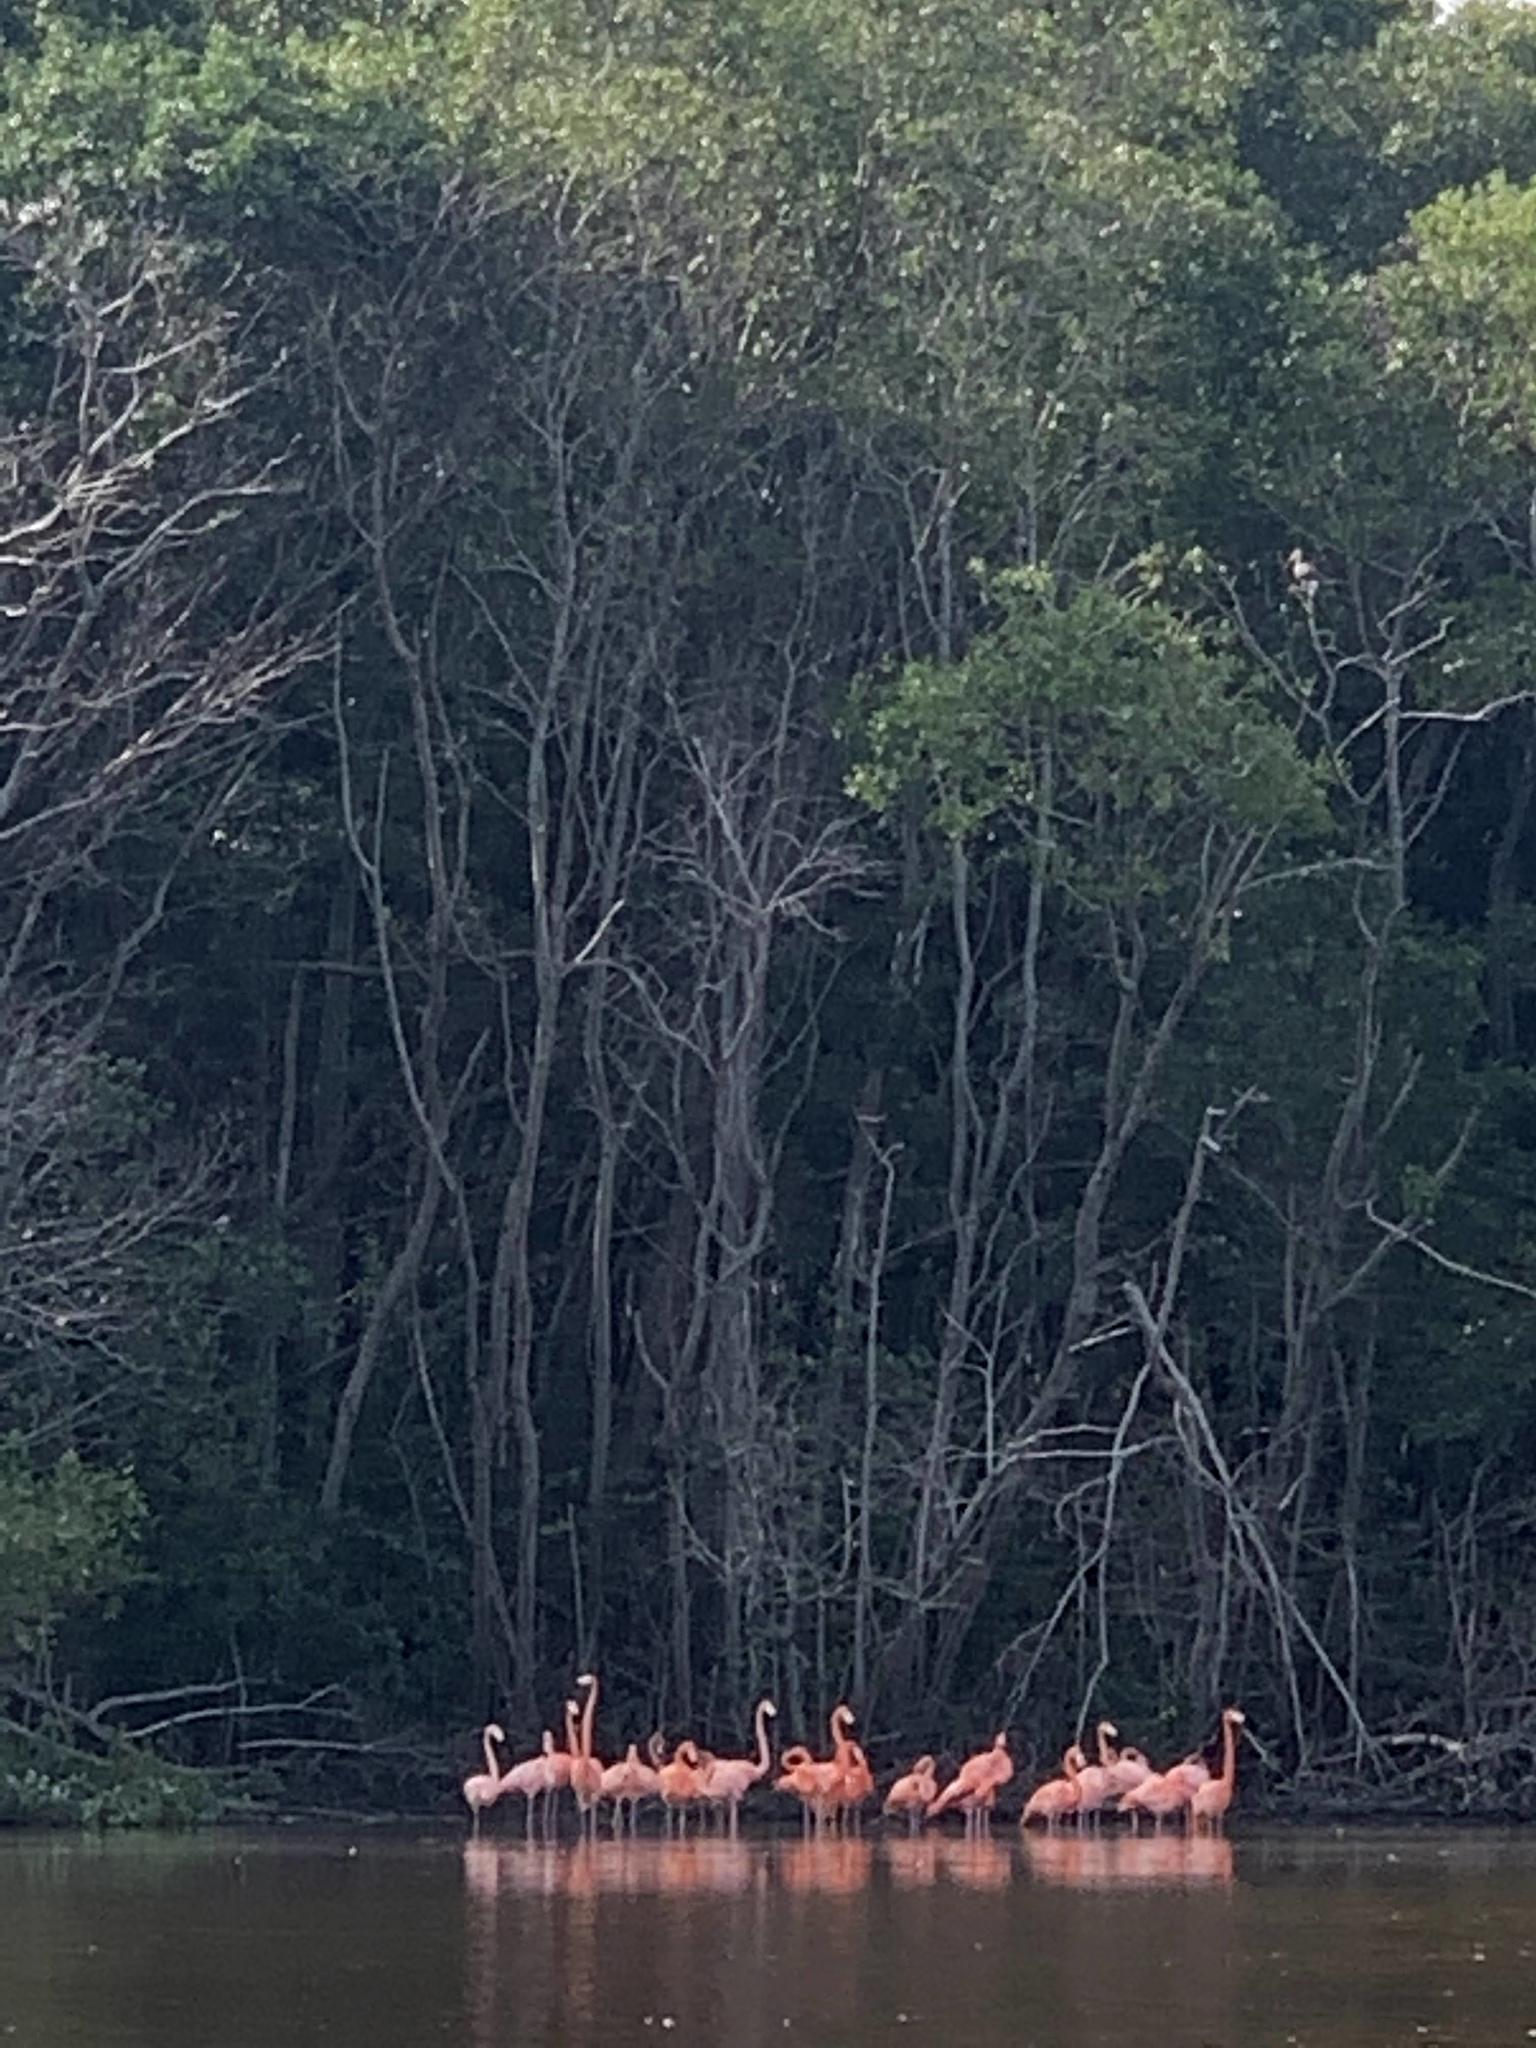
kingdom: Animalia
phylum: Chordata
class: Aves
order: Phoenicopteriformes
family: Phoenicopteridae
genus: Phoenicopterus
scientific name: Phoenicopterus ruber
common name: American flamingo
